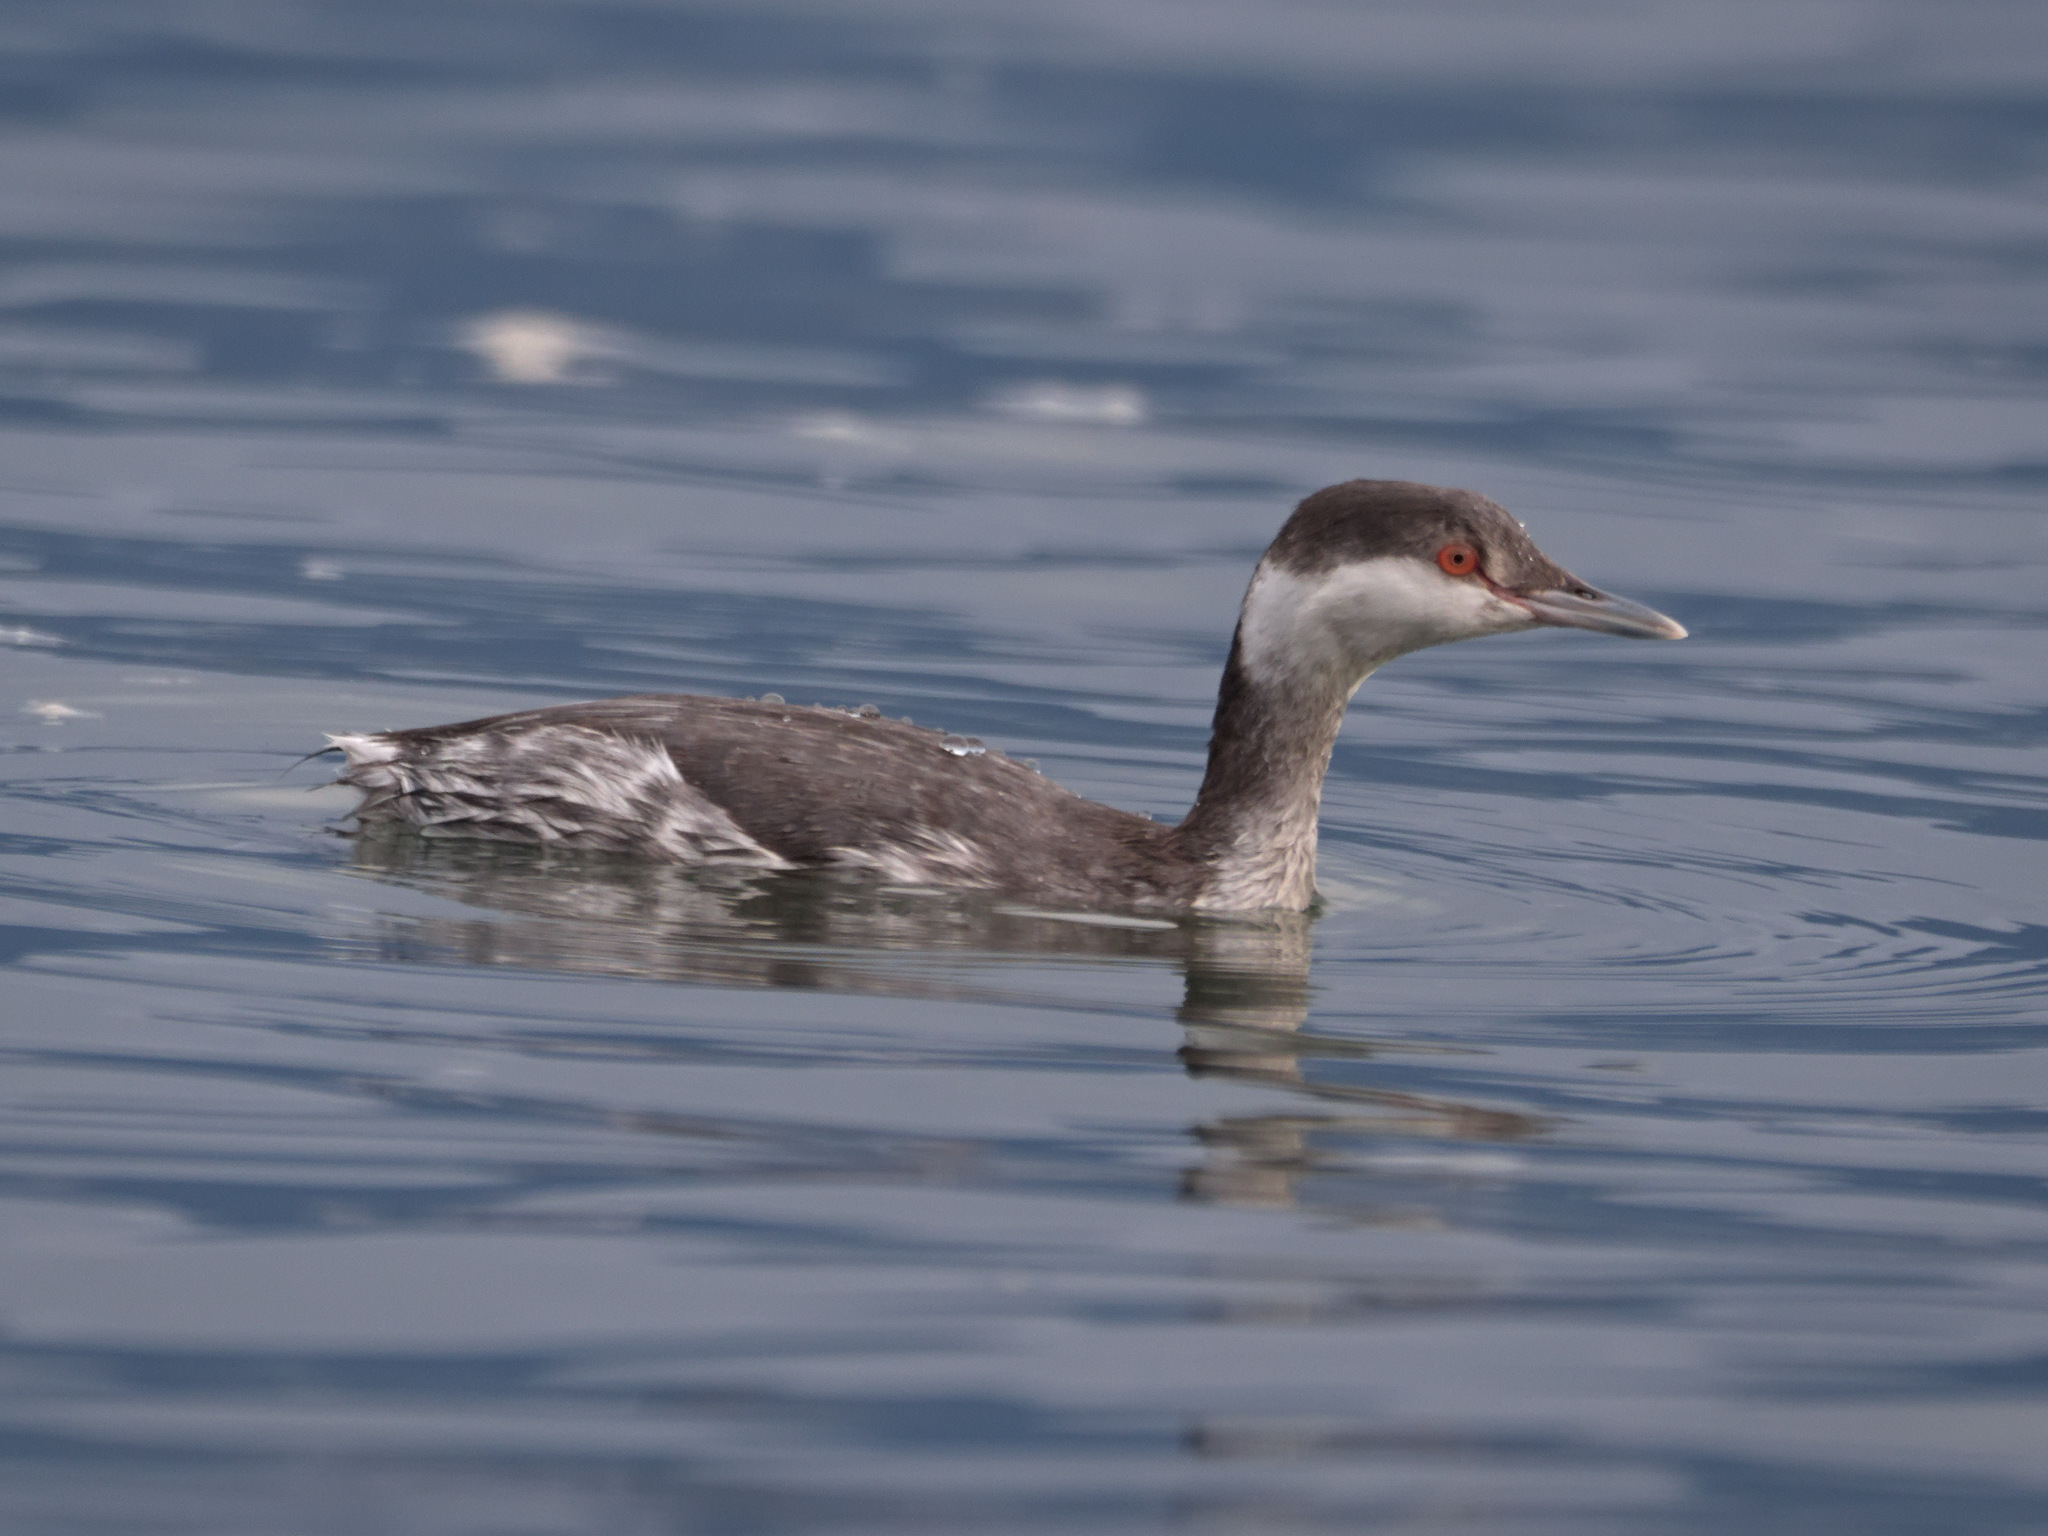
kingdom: Animalia
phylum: Chordata
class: Aves
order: Podicipediformes
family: Podicipedidae
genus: Podiceps
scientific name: Podiceps auritus
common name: Horned grebe
